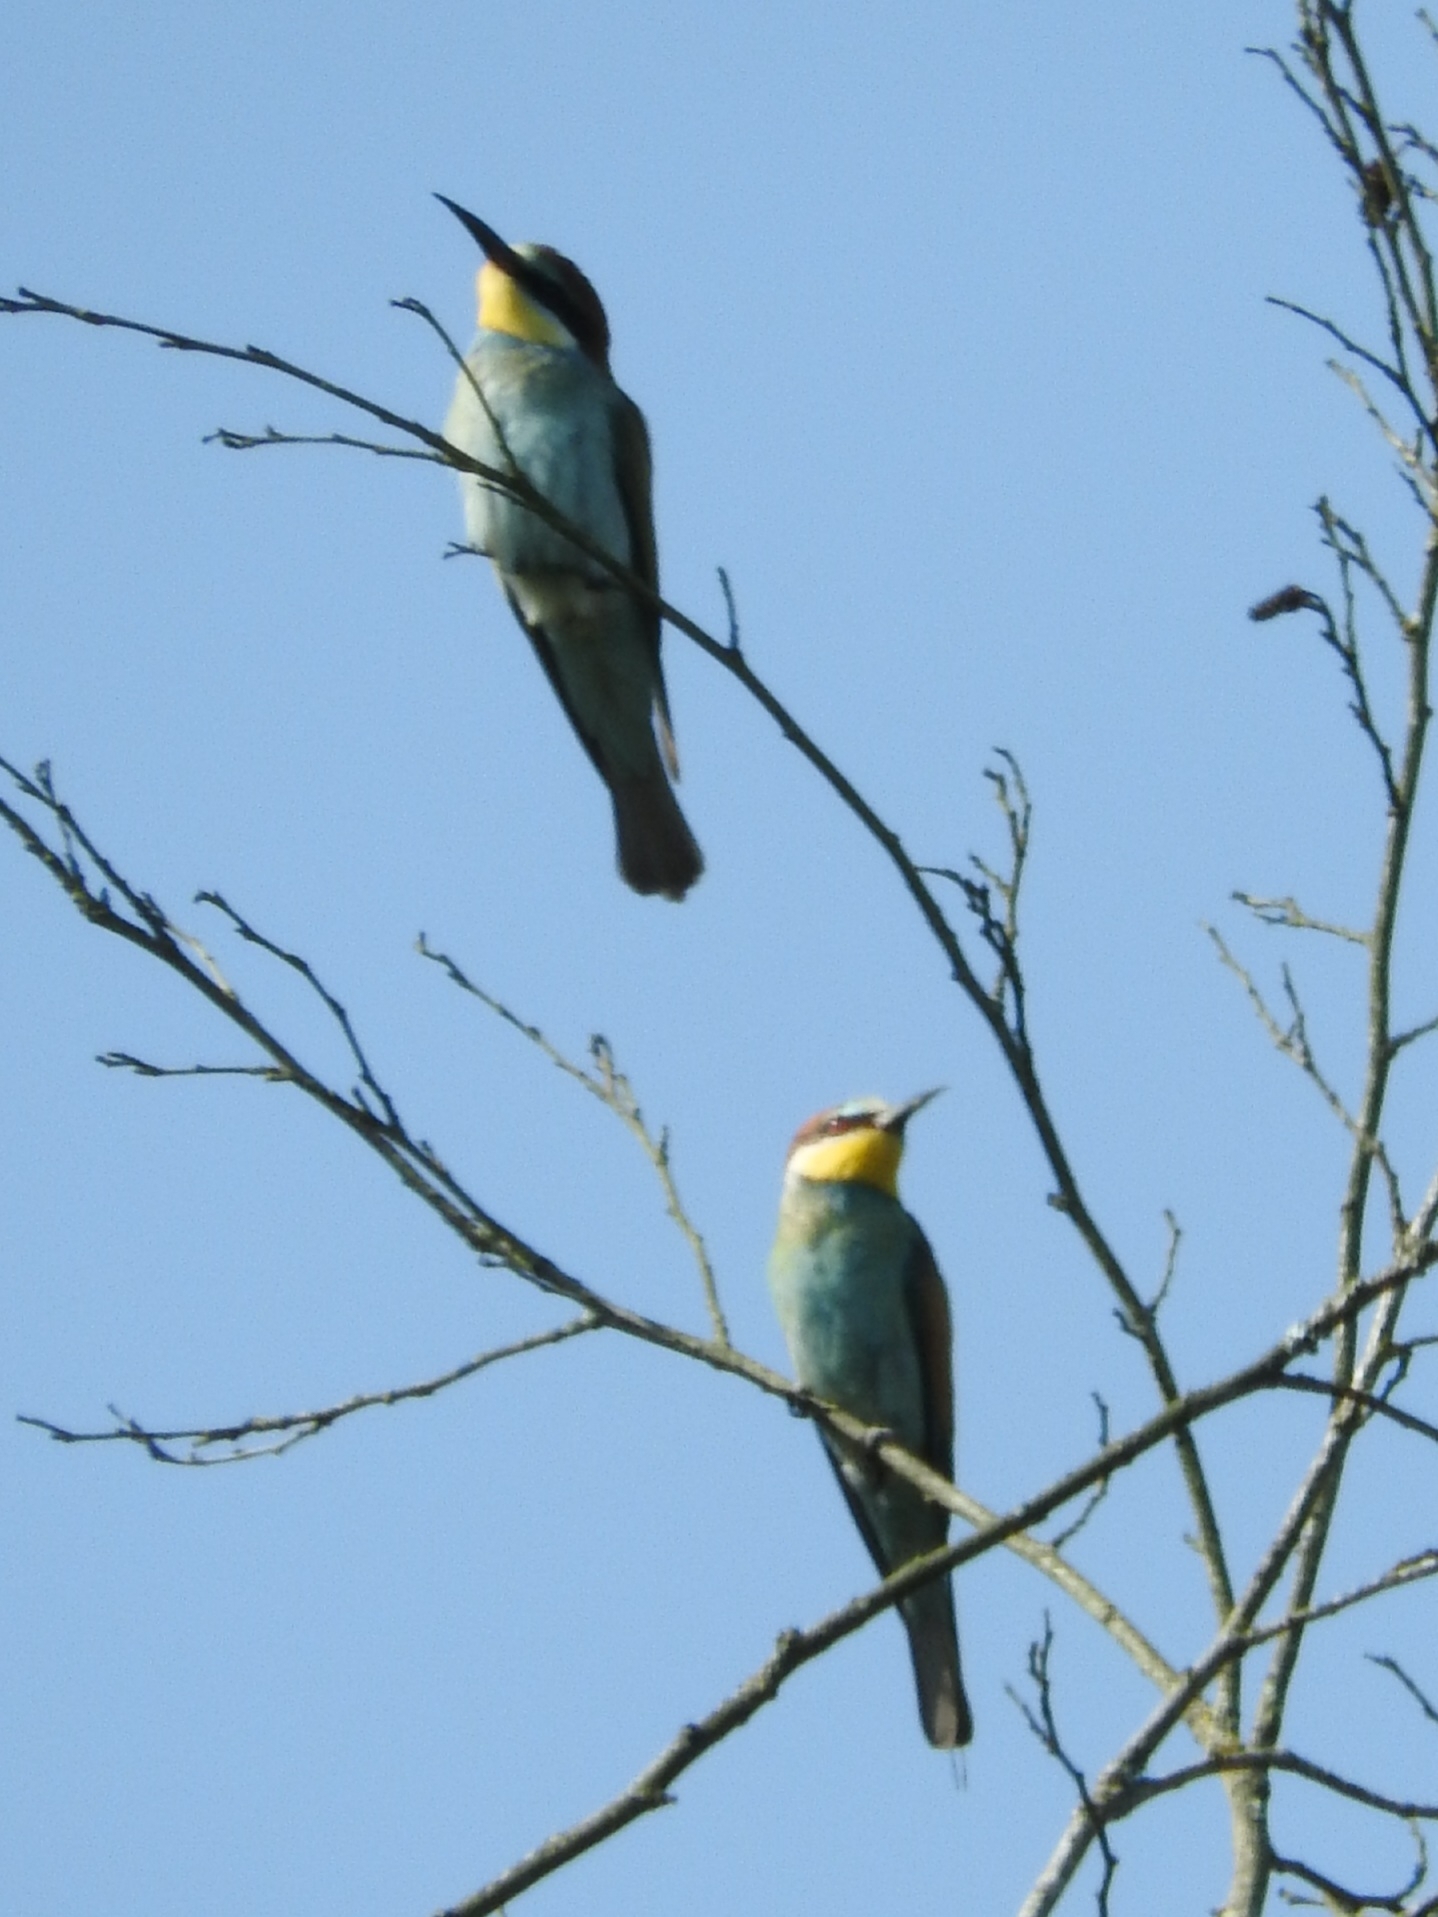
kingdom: Animalia
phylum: Chordata
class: Aves
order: Coraciiformes
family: Meropidae
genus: Merops
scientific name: Merops apiaster
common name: European bee-eater
